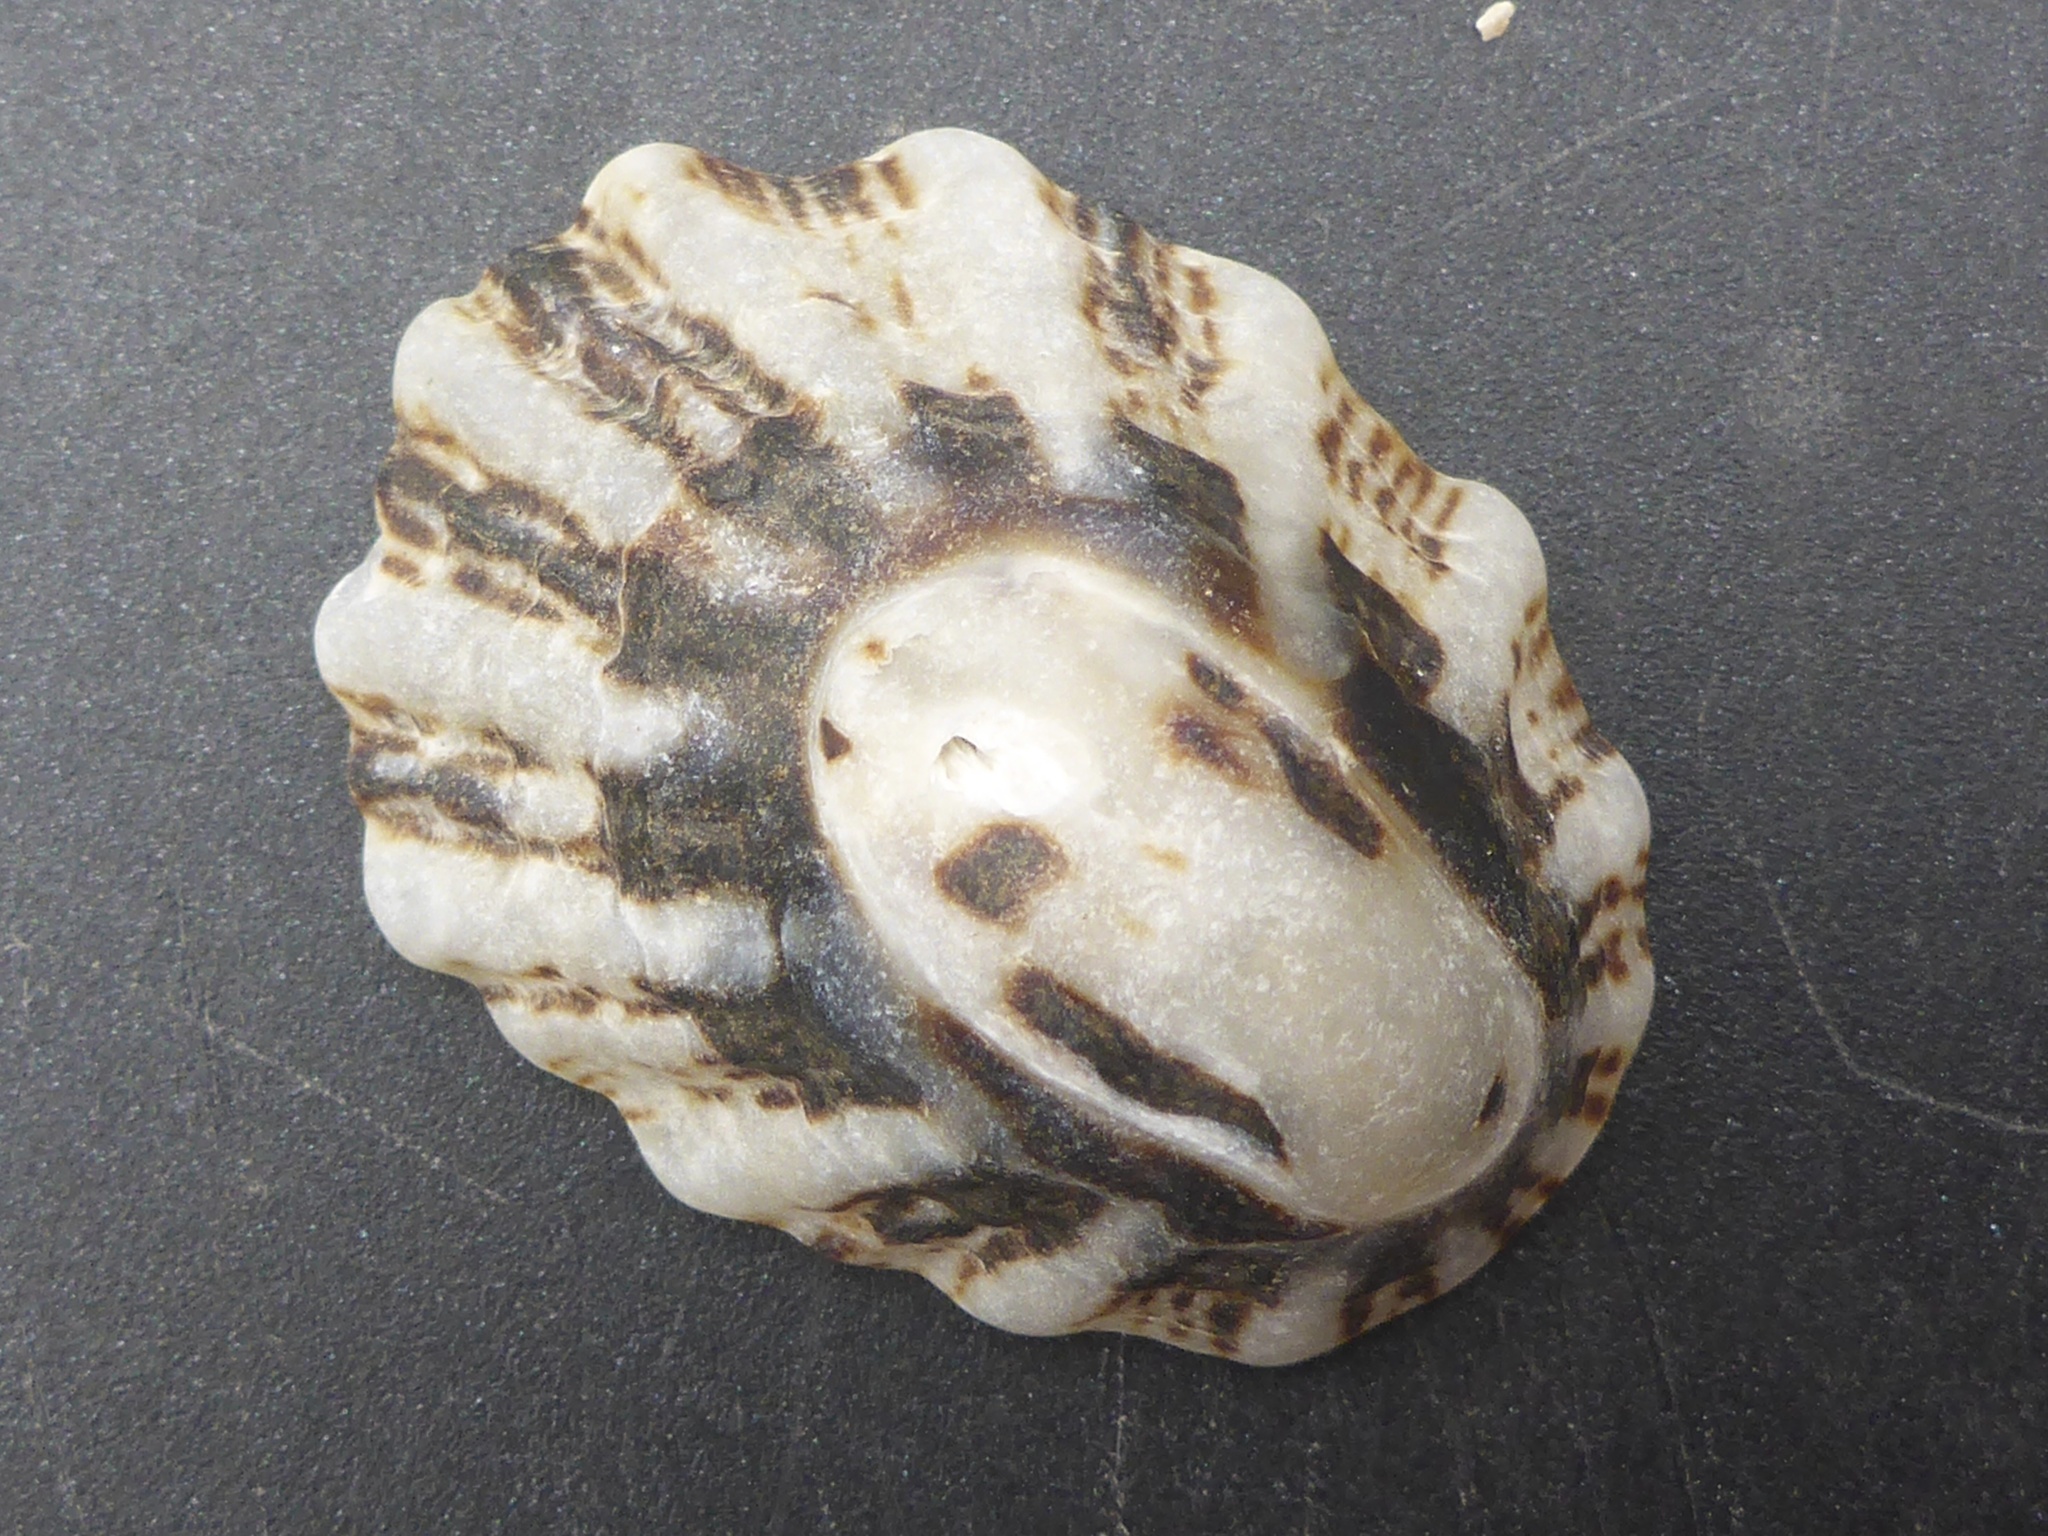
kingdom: Animalia
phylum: Mollusca
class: Gastropoda
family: Lottiidae
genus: Lottia
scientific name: Lottia scabra
